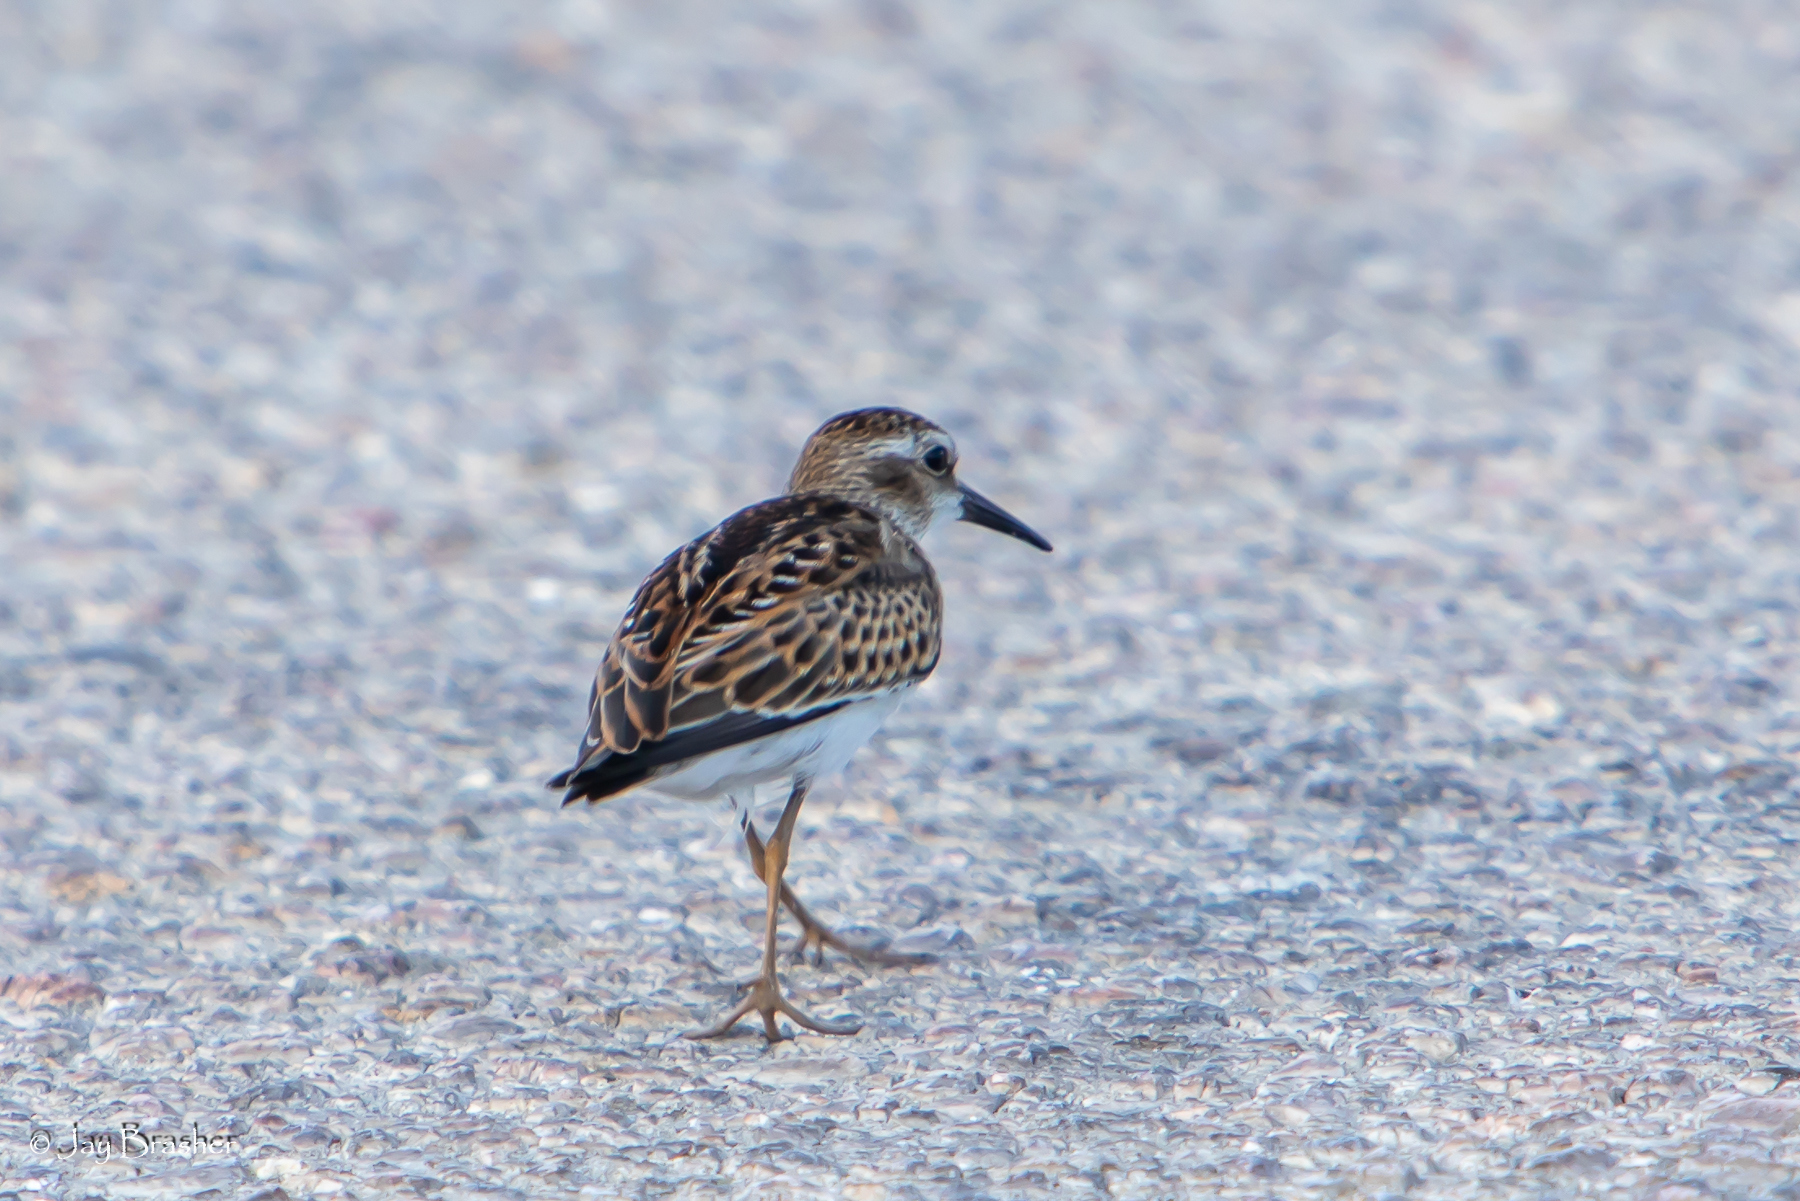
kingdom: Animalia
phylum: Chordata
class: Aves
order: Charadriiformes
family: Scolopacidae
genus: Calidris
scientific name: Calidris minutilla
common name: Least sandpiper
